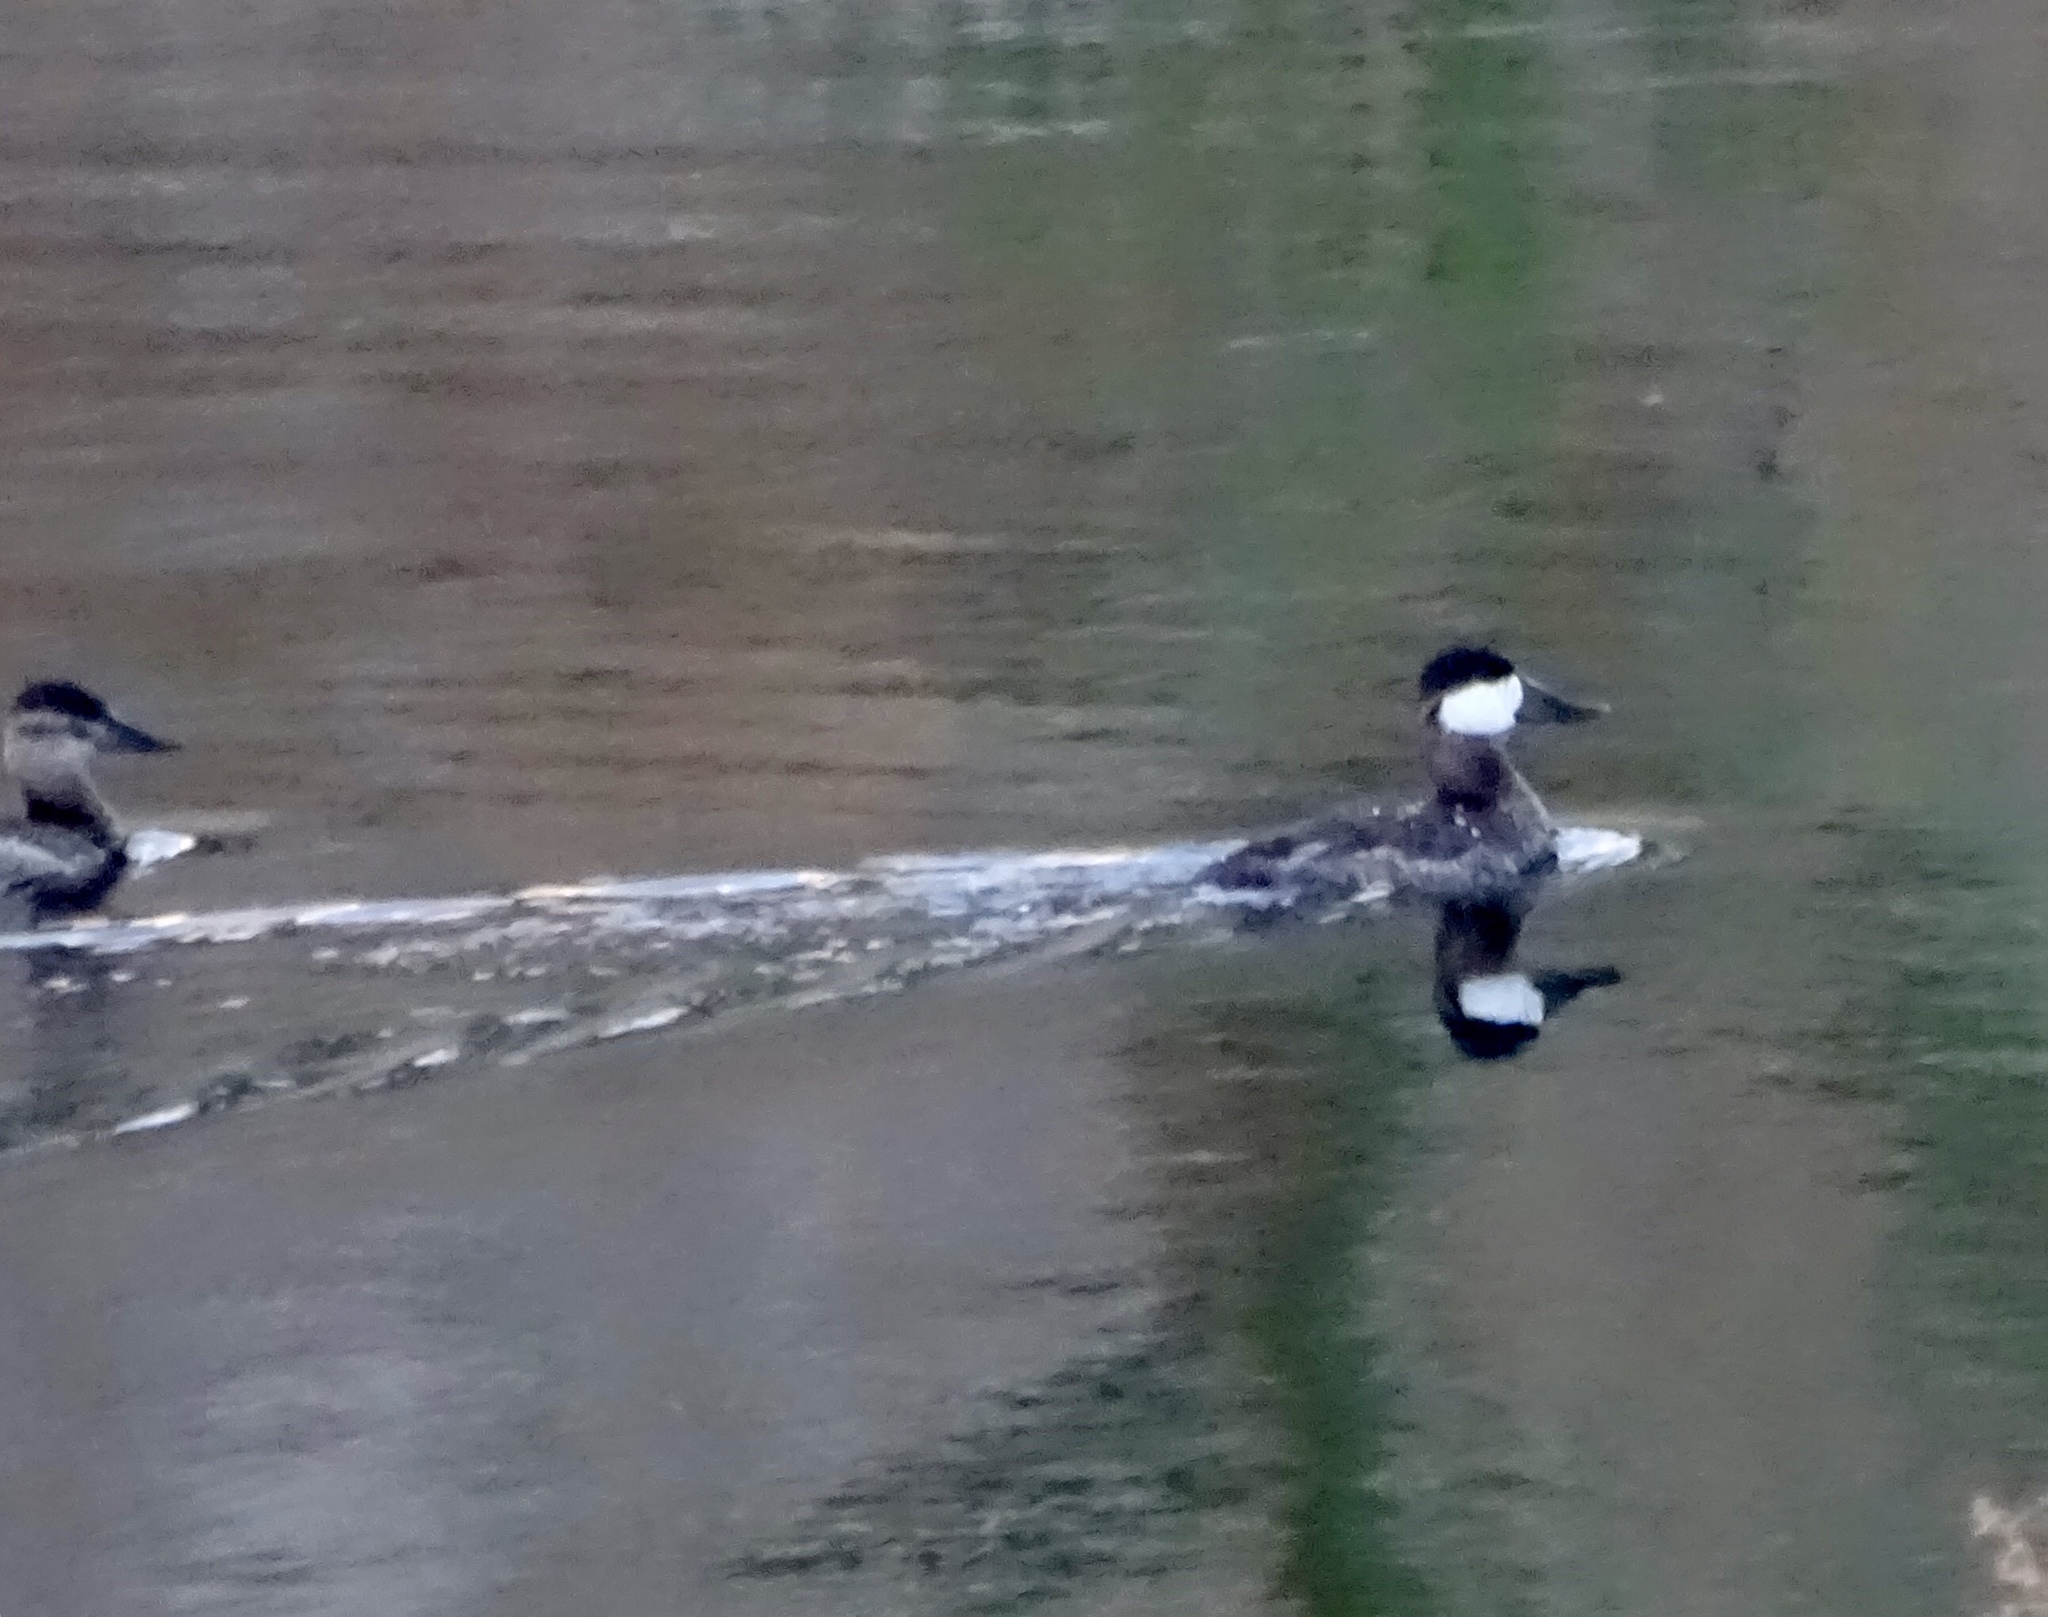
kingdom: Animalia
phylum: Chordata
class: Aves
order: Anseriformes
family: Anatidae
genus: Oxyura
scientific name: Oxyura jamaicensis
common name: Ruddy duck
